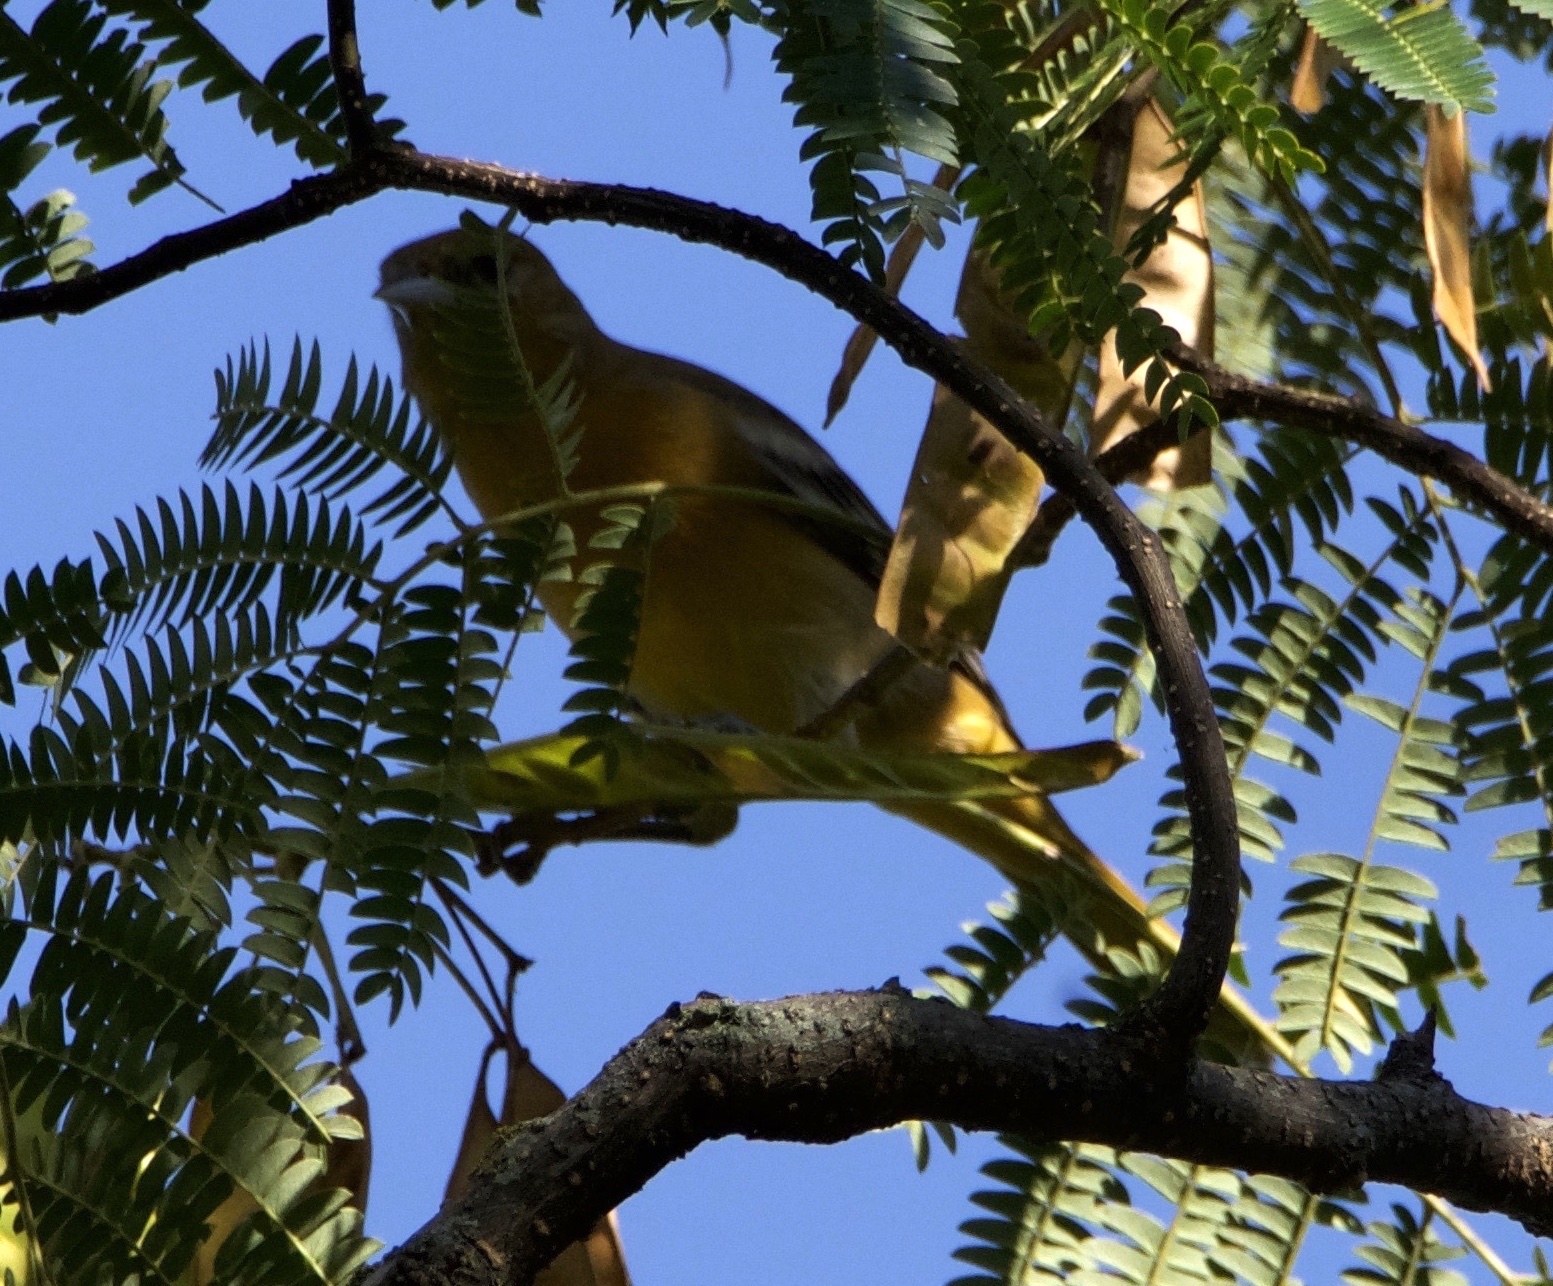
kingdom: Animalia
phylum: Chordata
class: Aves
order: Passeriformes
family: Icteridae
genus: Icterus
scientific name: Icterus galbula
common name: Baltimore oriole
